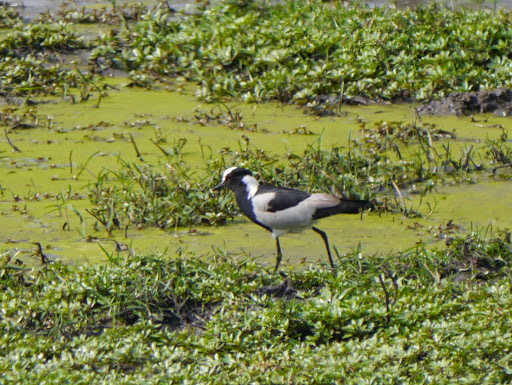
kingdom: Animalia
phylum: Chordata
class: Aves
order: Charadriiformes
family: Charadriidae
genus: Vanellus
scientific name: Vanellus armatus
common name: Blacksmith lapwing
